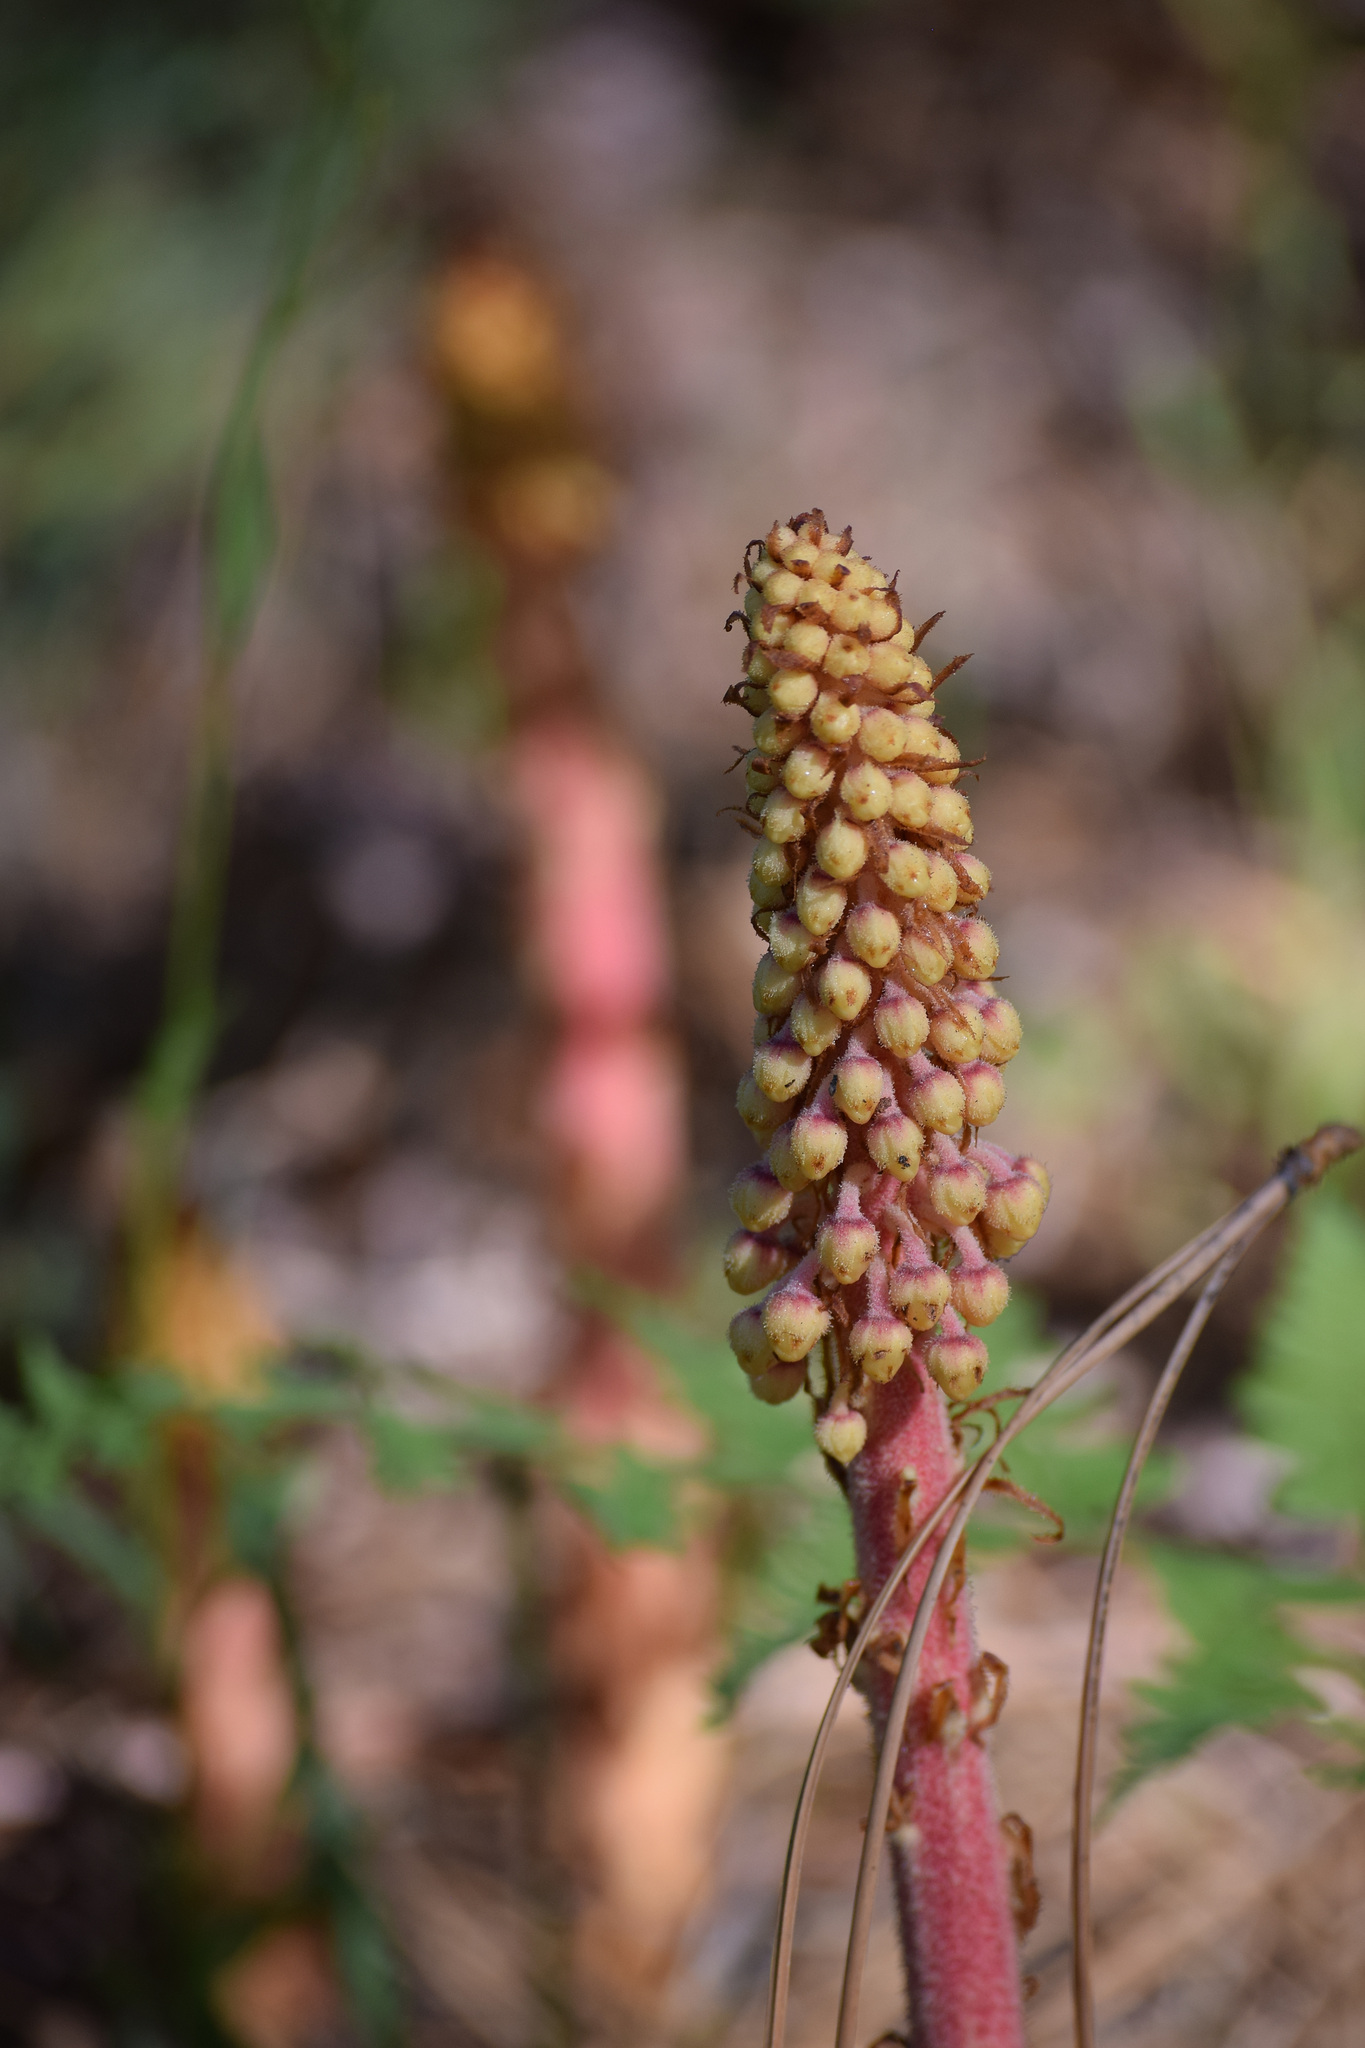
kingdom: Plantae
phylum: Tracheophyta
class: Magnoliopsida
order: Ericales
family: Ericaceae
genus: Pterospora
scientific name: Pterospora andromedea
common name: Giant bird's-nest
